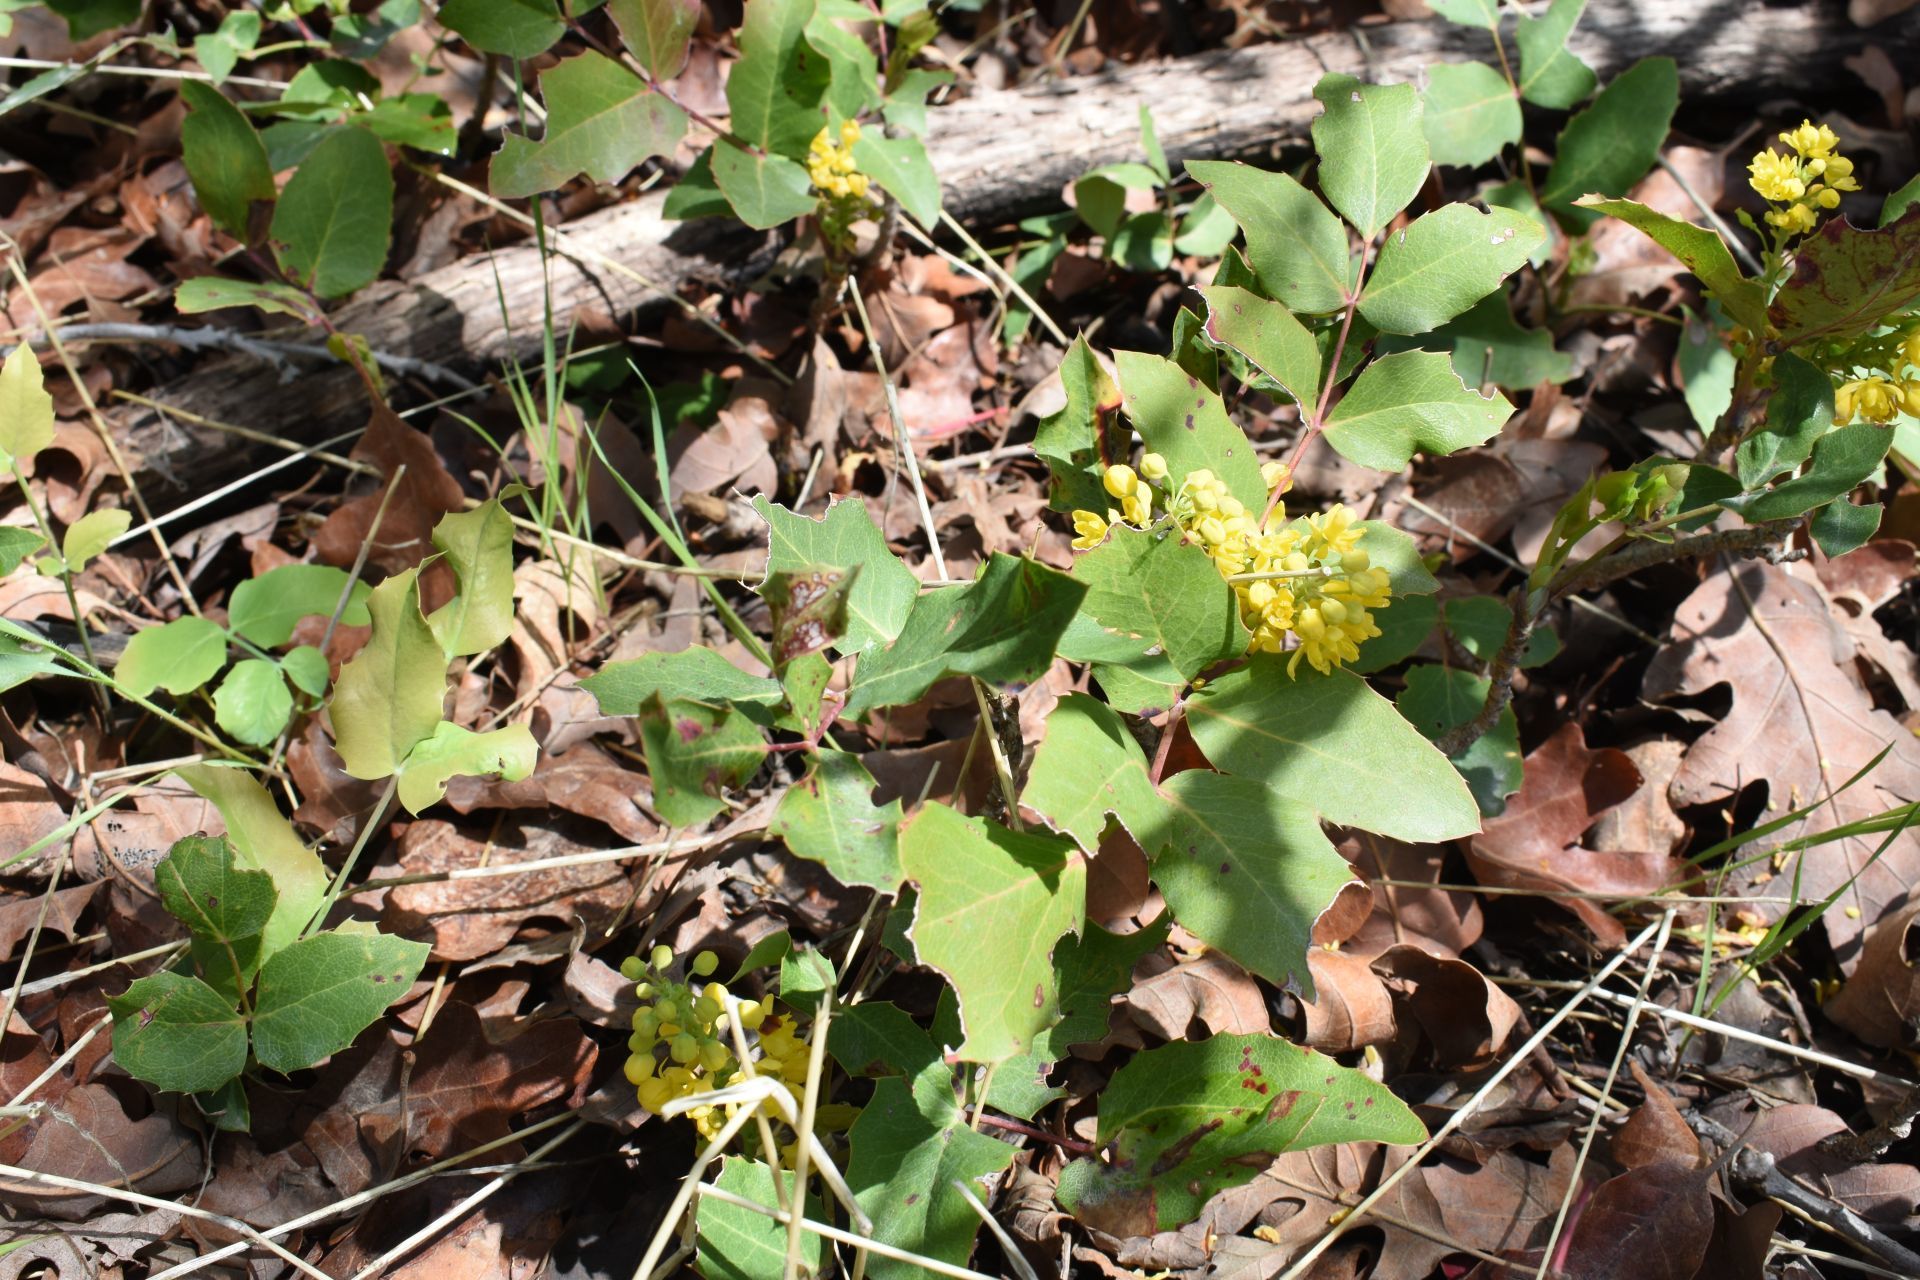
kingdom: Plantae
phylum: Tracheophyta
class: Magnoliopsida
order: Ranunculales
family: Berberidaceae
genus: Mahonia
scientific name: Mahonia repens
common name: Creeping oregon-grape
